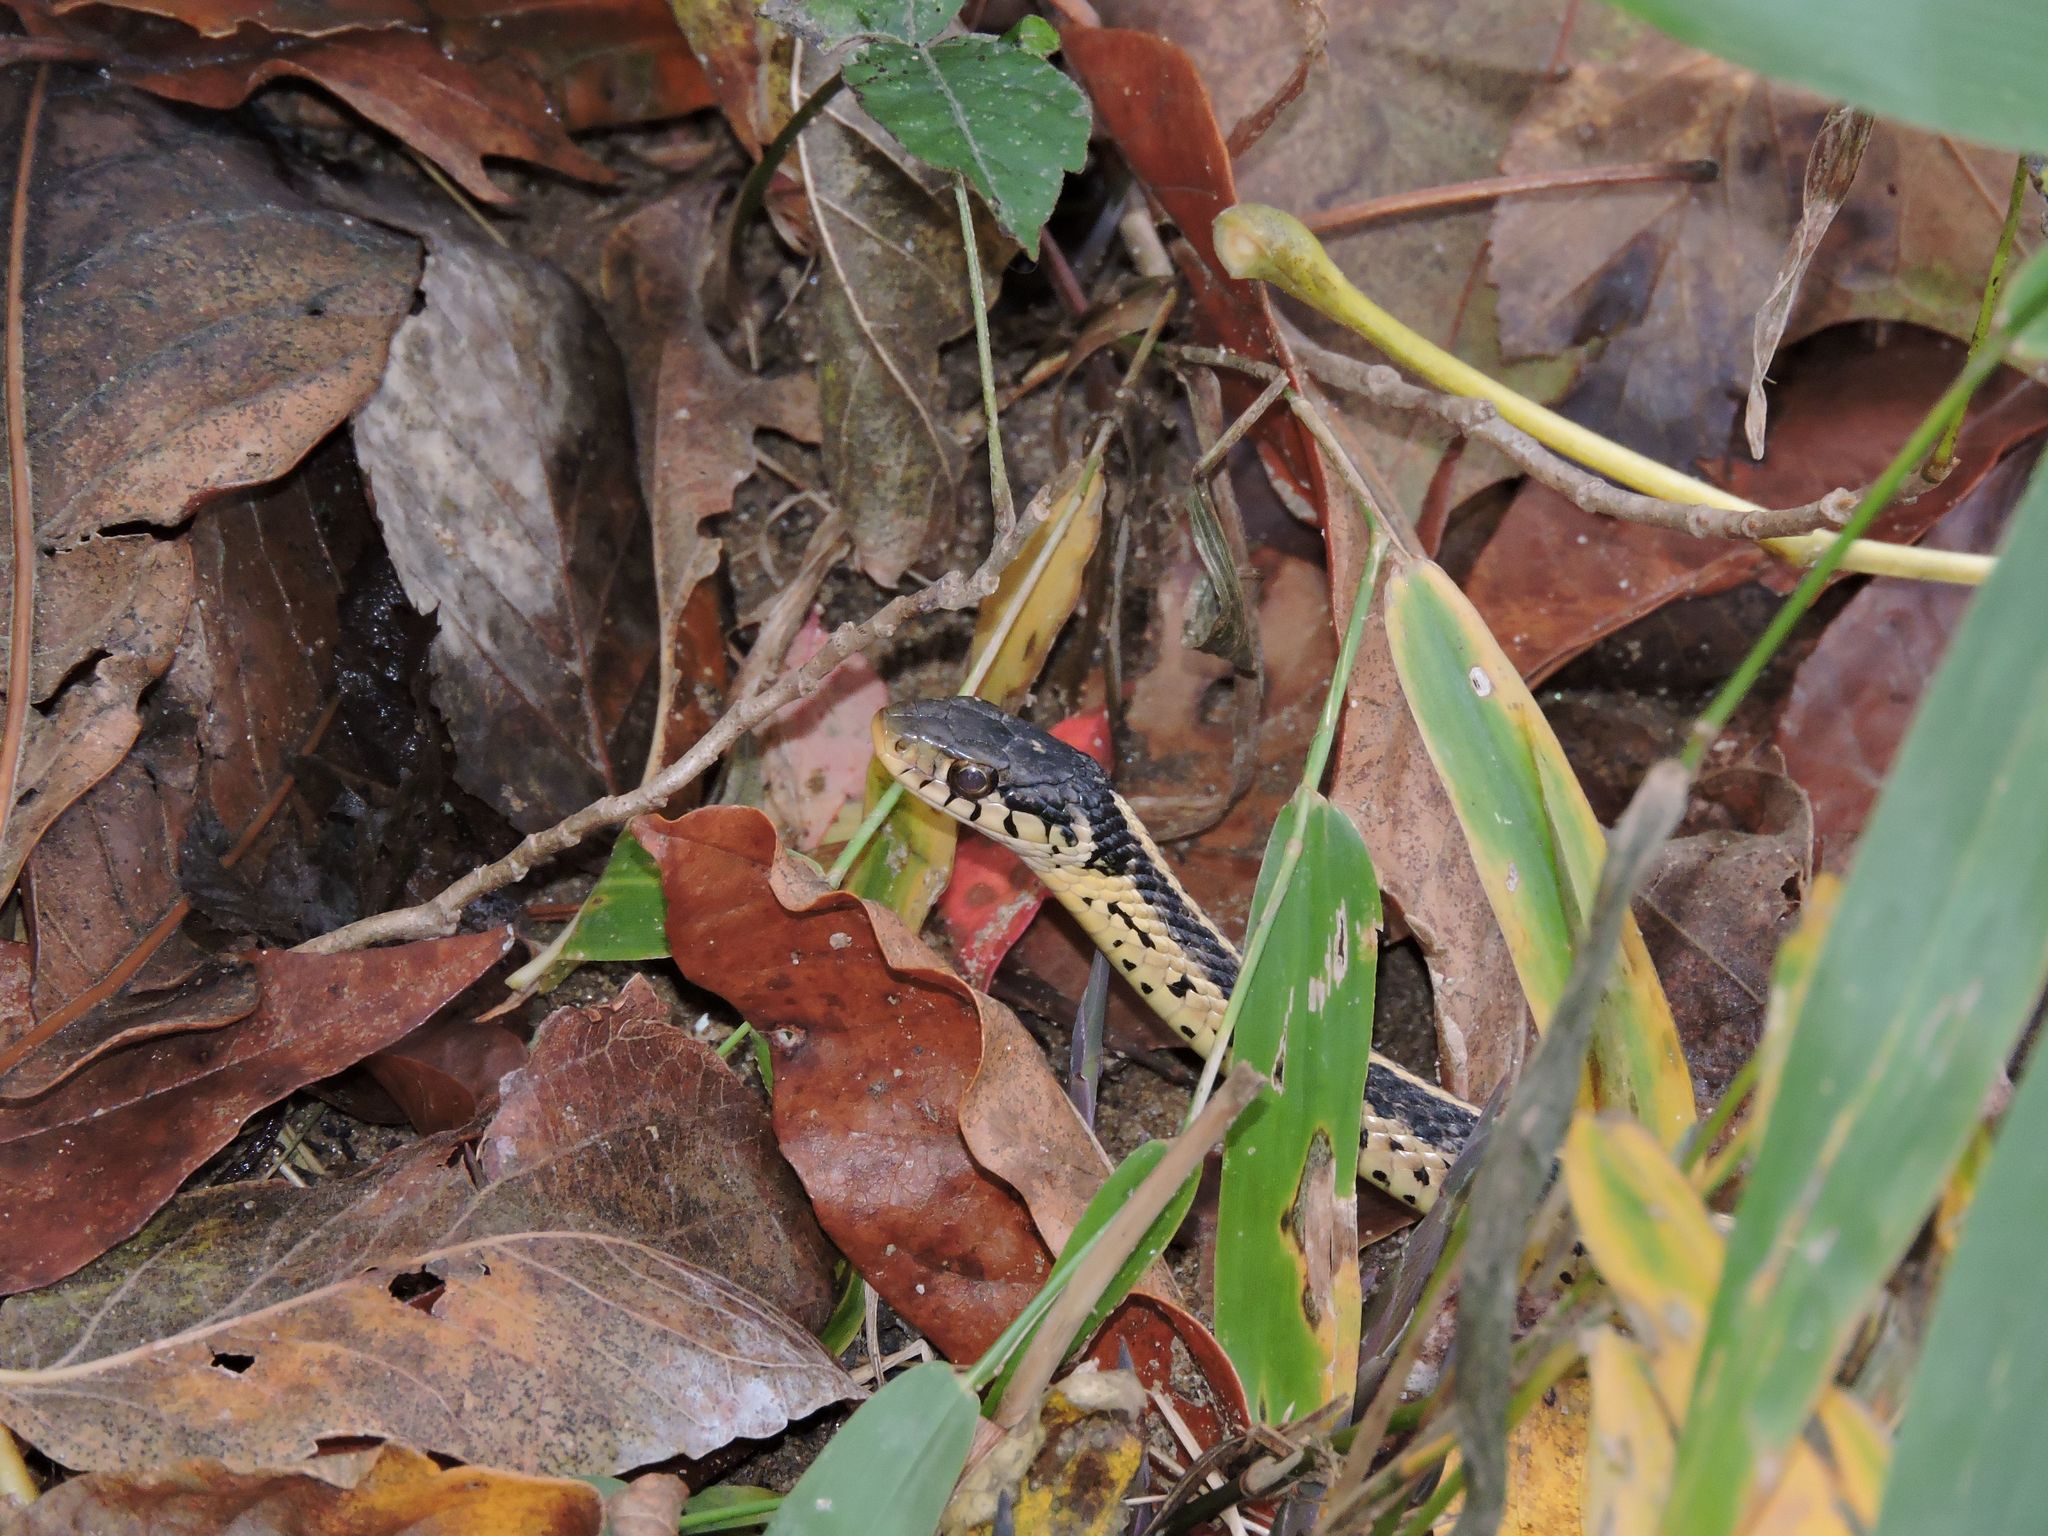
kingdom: Animalia
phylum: Chordata
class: Squamata
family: Colubridae
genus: Thamnophis
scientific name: Thamnophis sirtalis
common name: Common garter snake
